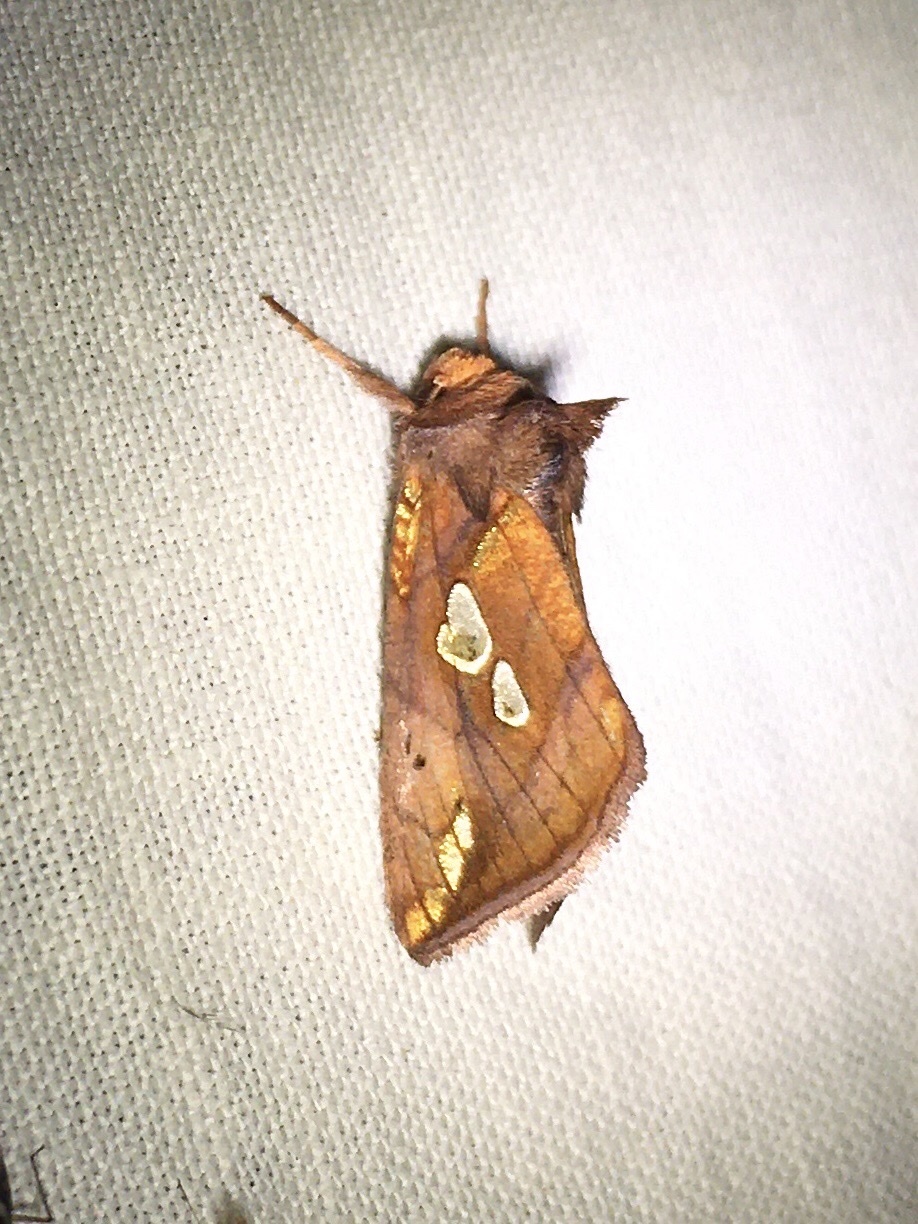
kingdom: Animalia
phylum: Arthropoda
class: Insecta
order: Lepidoptera
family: Noctuidae
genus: Plusia
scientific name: Plusia putnami
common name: Lempke's gold spot
